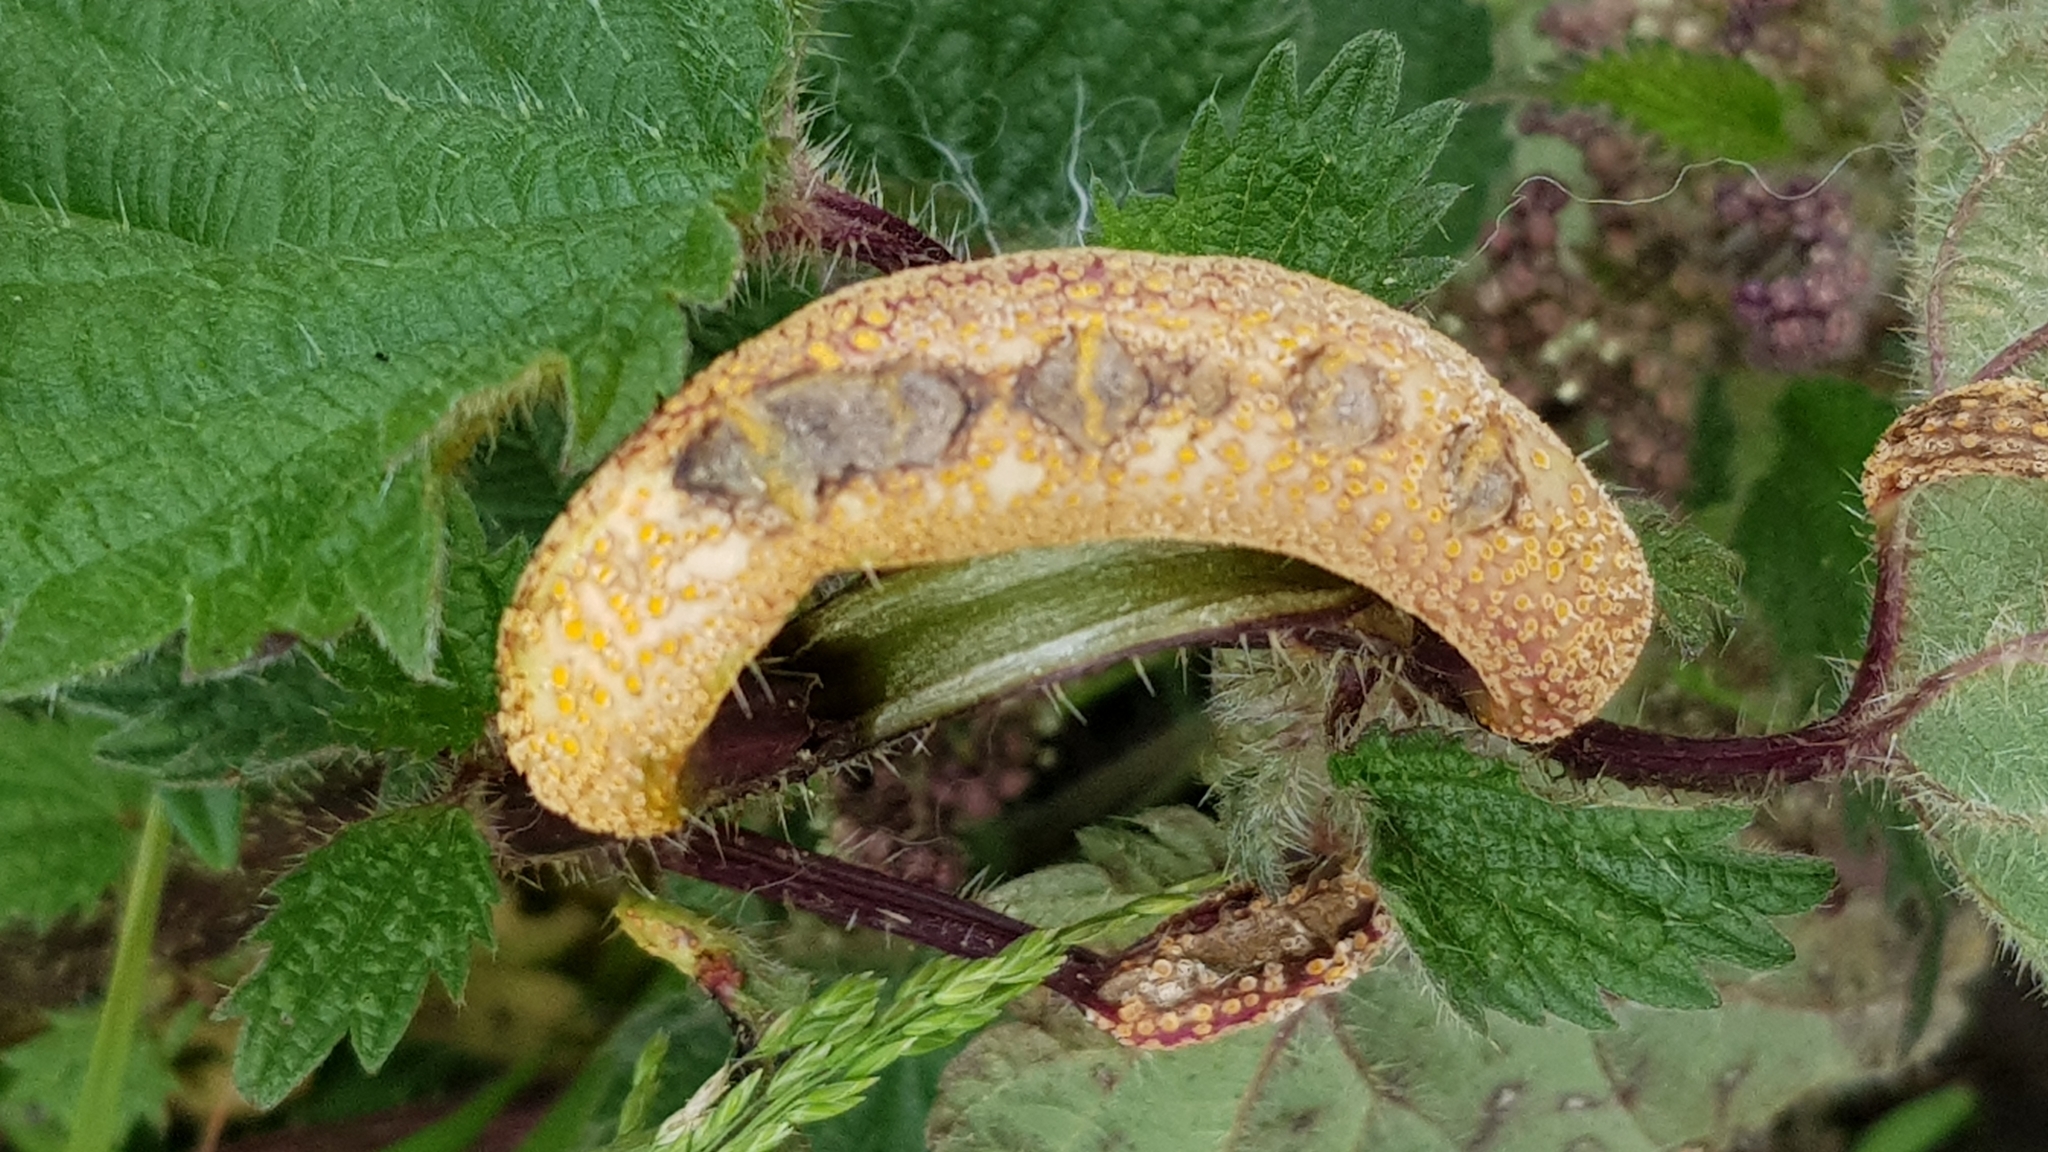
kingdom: Fungi
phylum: Basidiomycota
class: Pucciniomycetes
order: Pucciniales
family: Pucciniaceae
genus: Puccinia
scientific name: Puccinia urticata
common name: Nettle clustercup rust fungus
